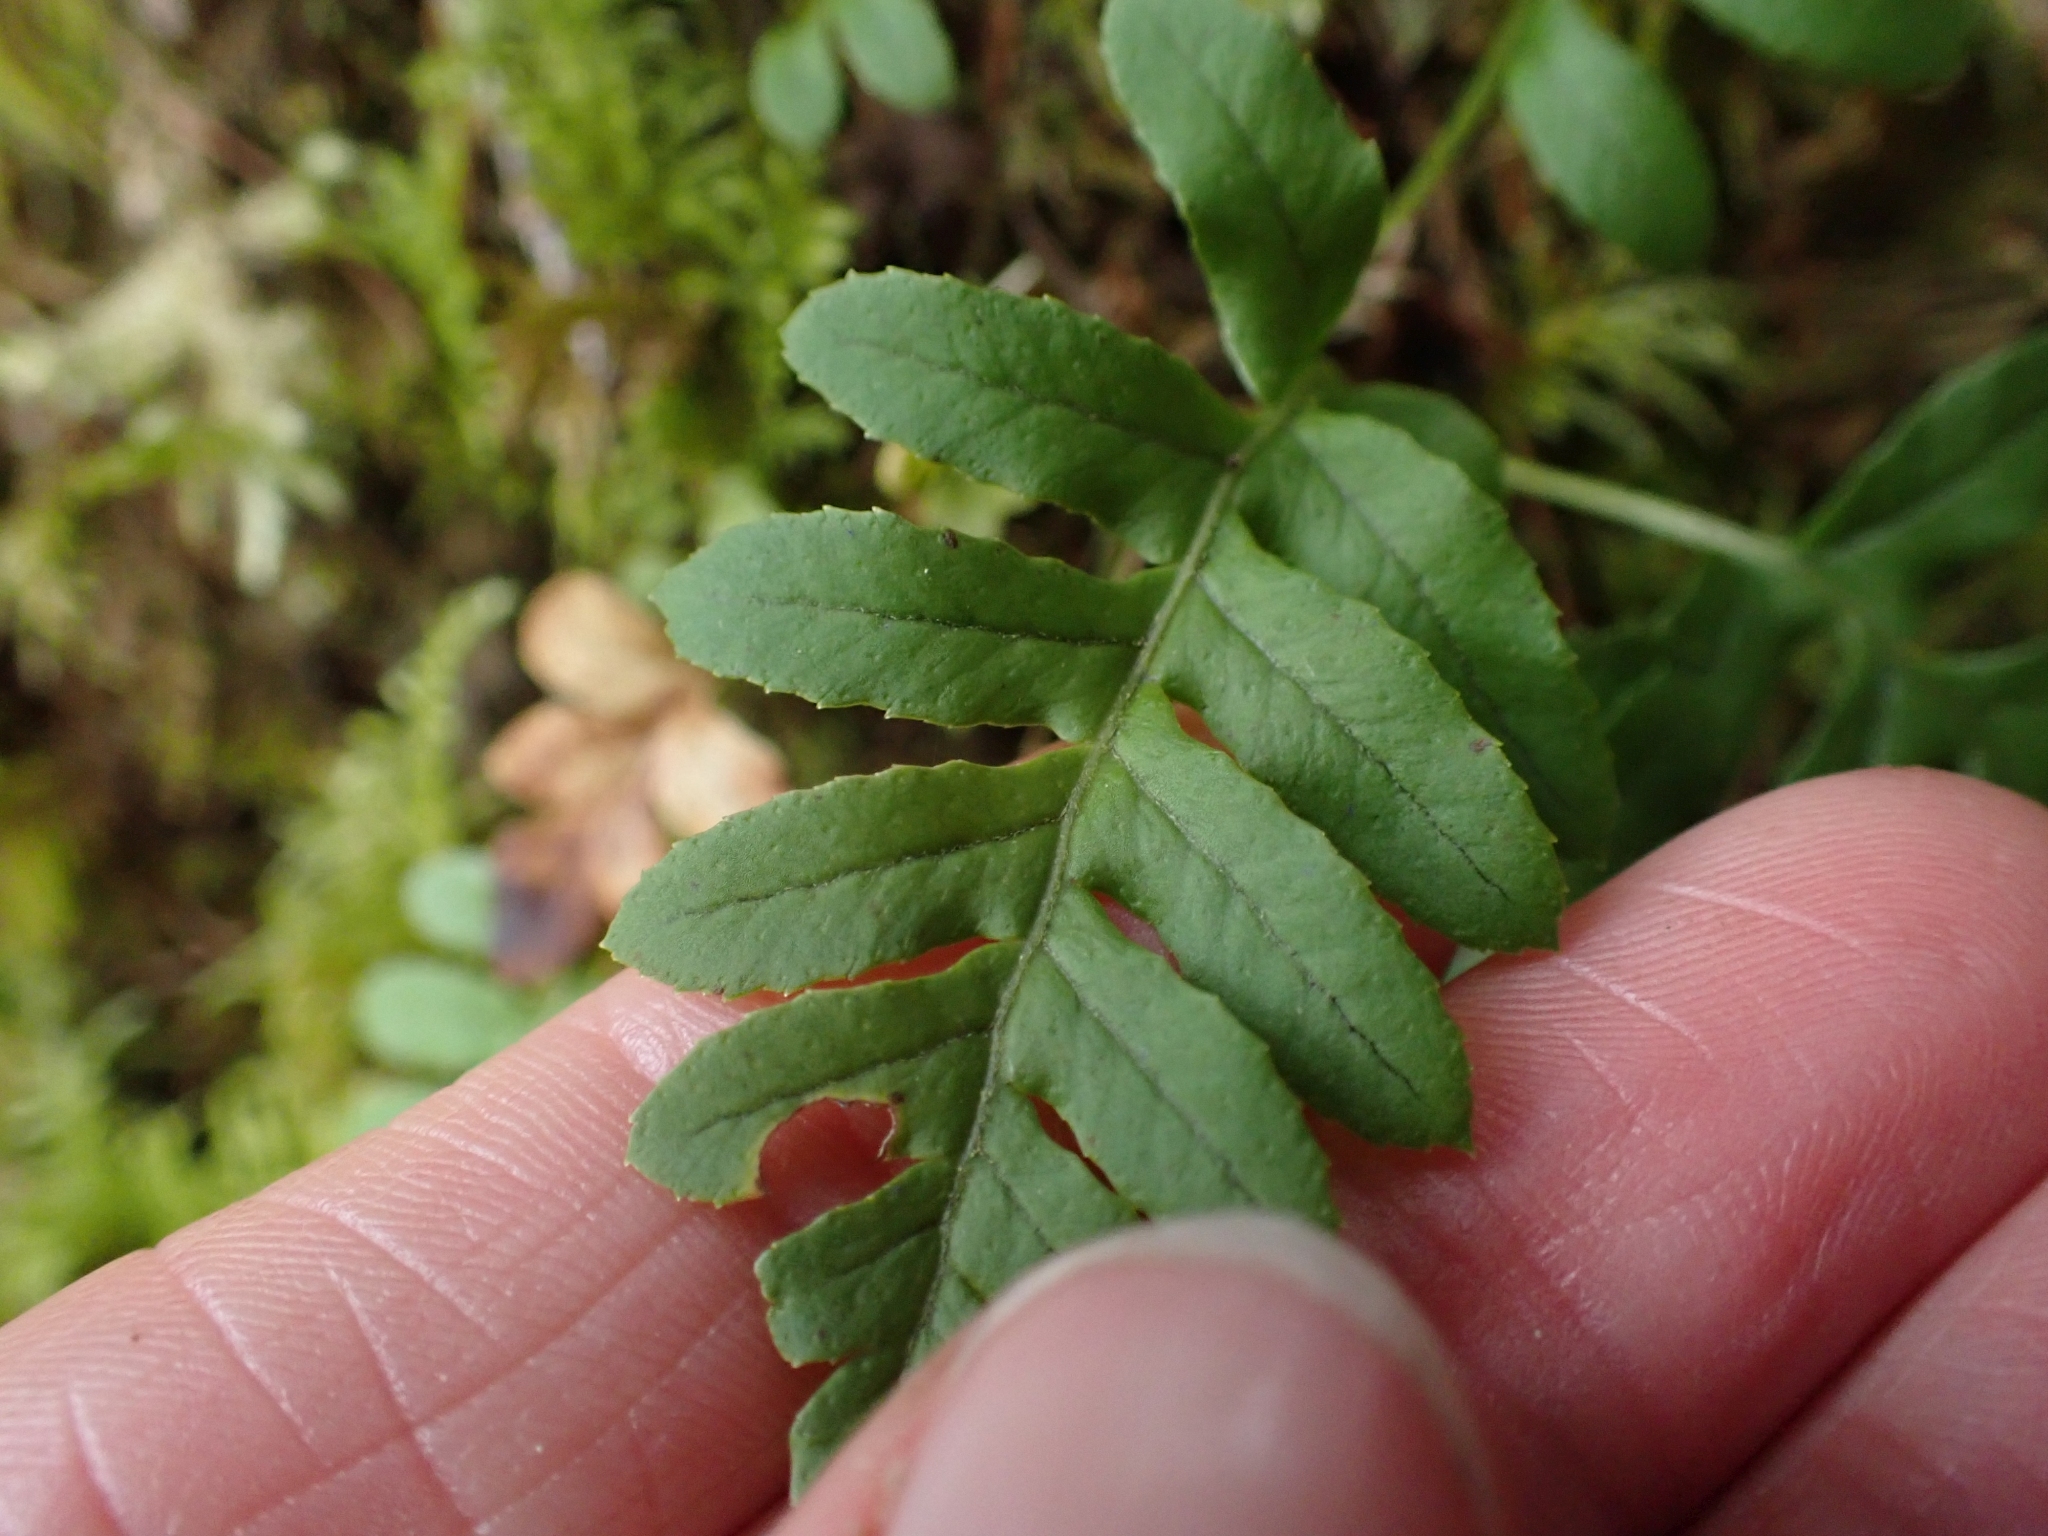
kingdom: Plantae
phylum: Tracheophyta
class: Polypodiopsida
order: Polypodiales
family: Polypodiaceae
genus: Polypodium
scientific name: Polypodium glycyrrhiza
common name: Licorice fern
